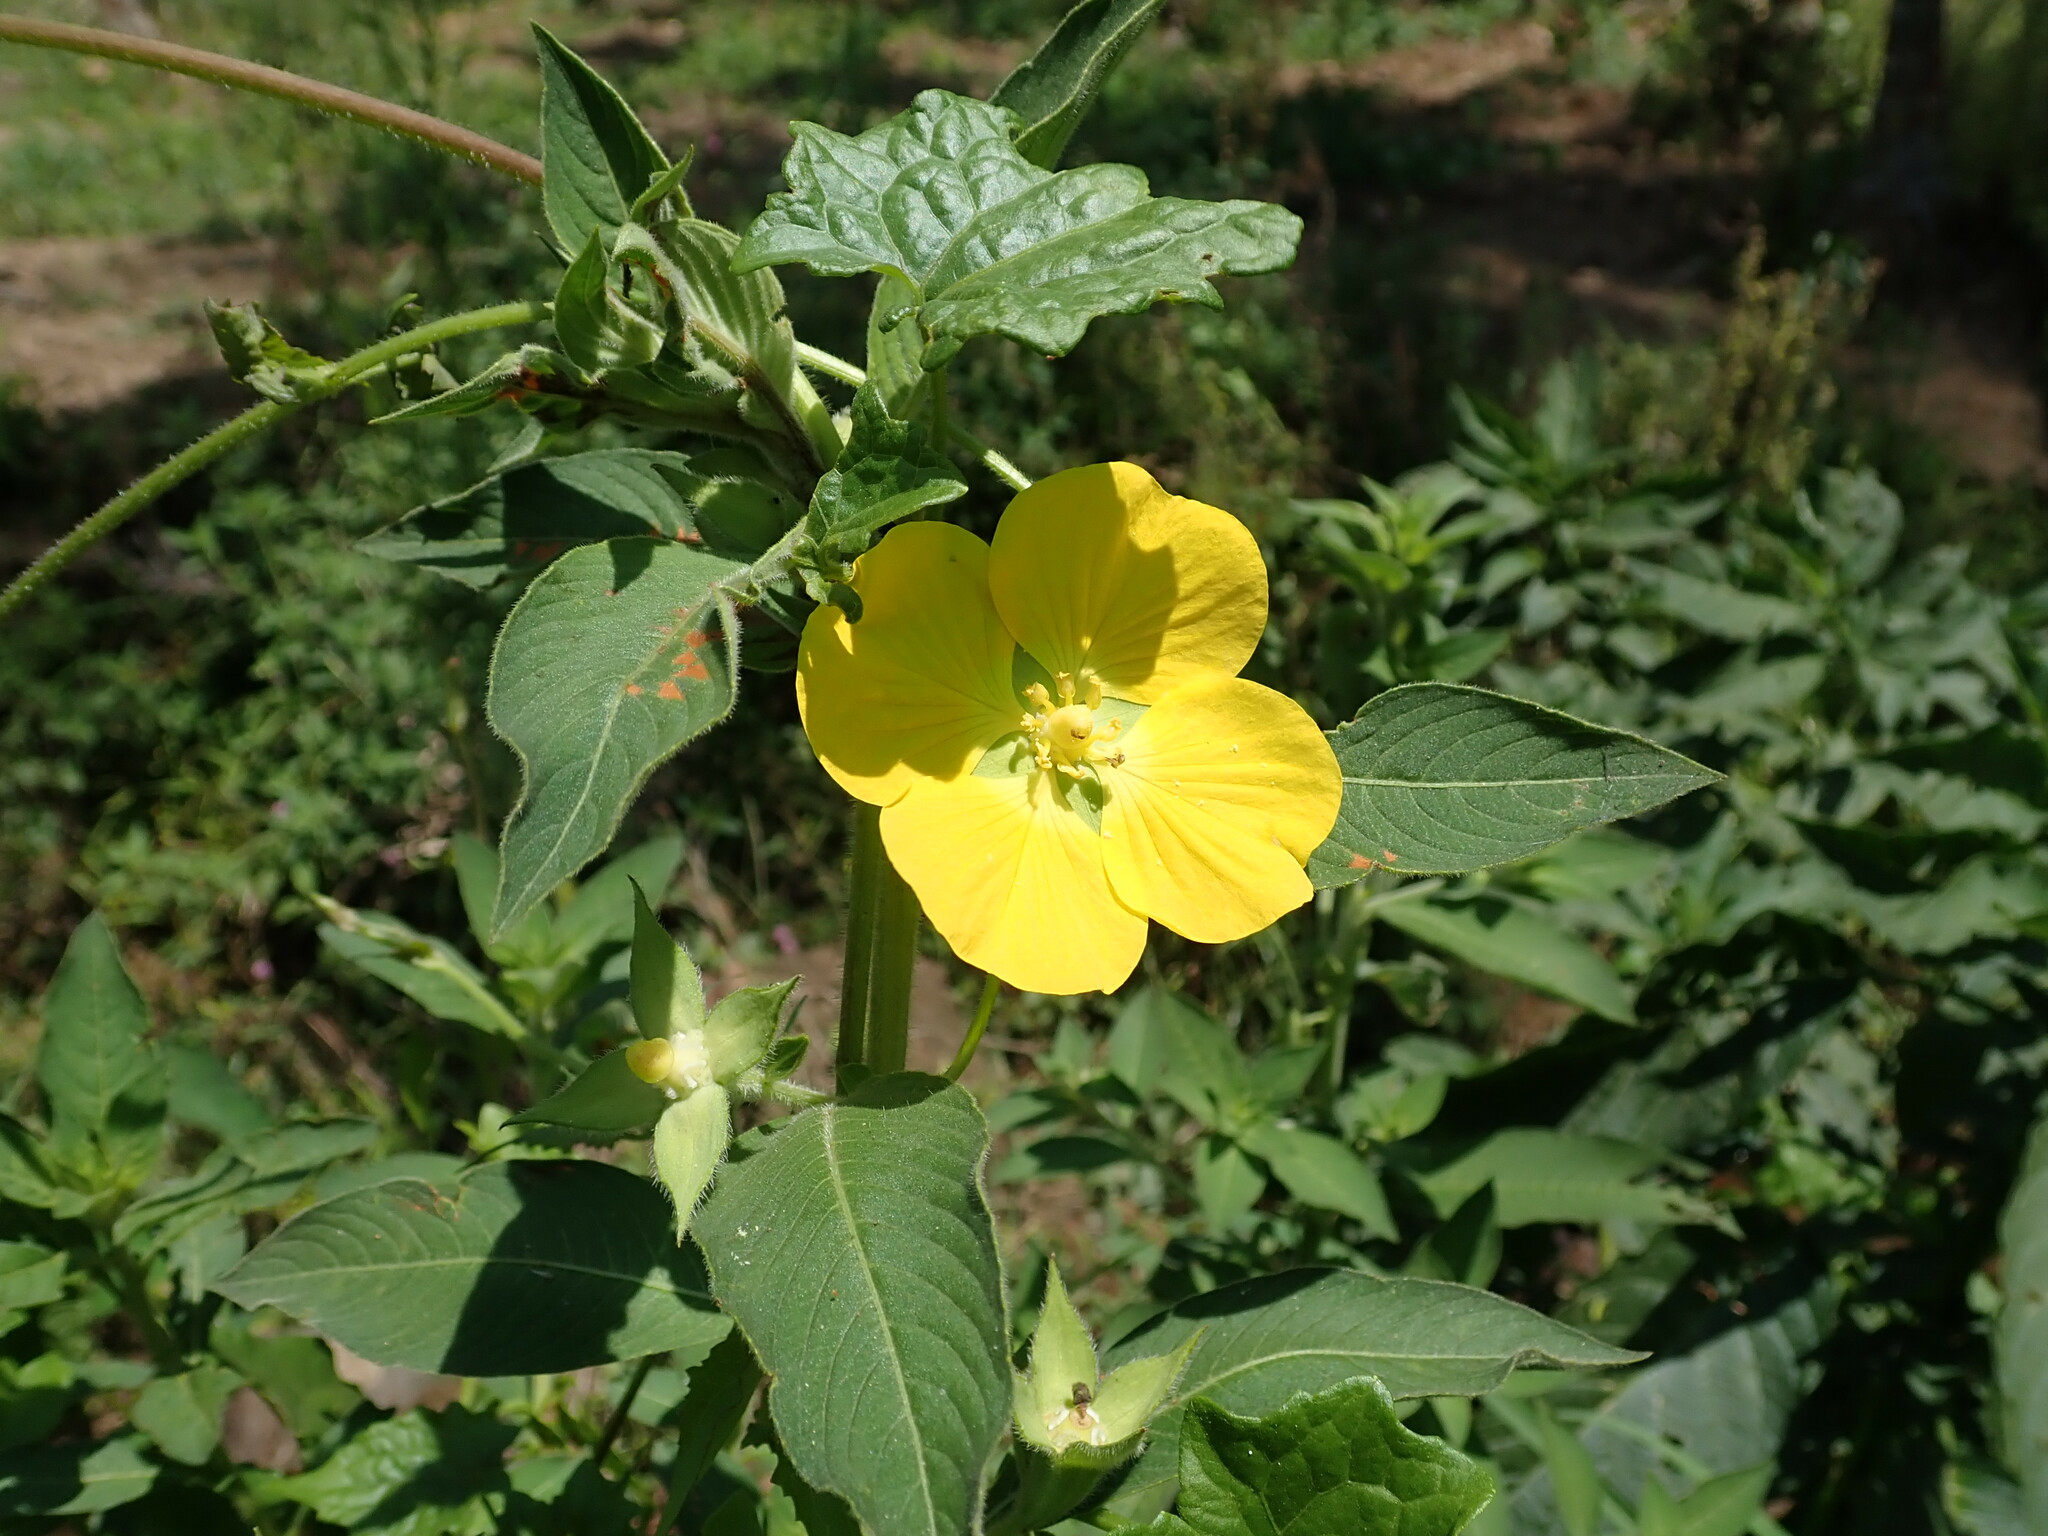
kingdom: Plantae
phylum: Tracheophyta
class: Magnoliopsida
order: Myrtales
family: Onagraceae
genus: Ludwigia
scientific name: Ludwigia peruviana
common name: Peruvian primrose-willow
